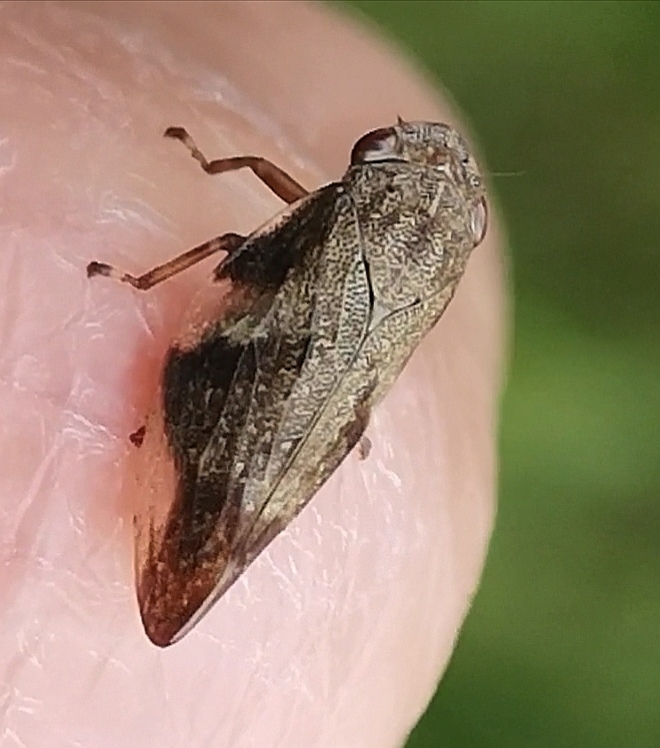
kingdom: Animalia
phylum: Arthropoda
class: Insecta
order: Hemiptera
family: Aphrophoridae
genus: Aphrophora
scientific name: Aphrophora alni
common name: European alder spittlebug
